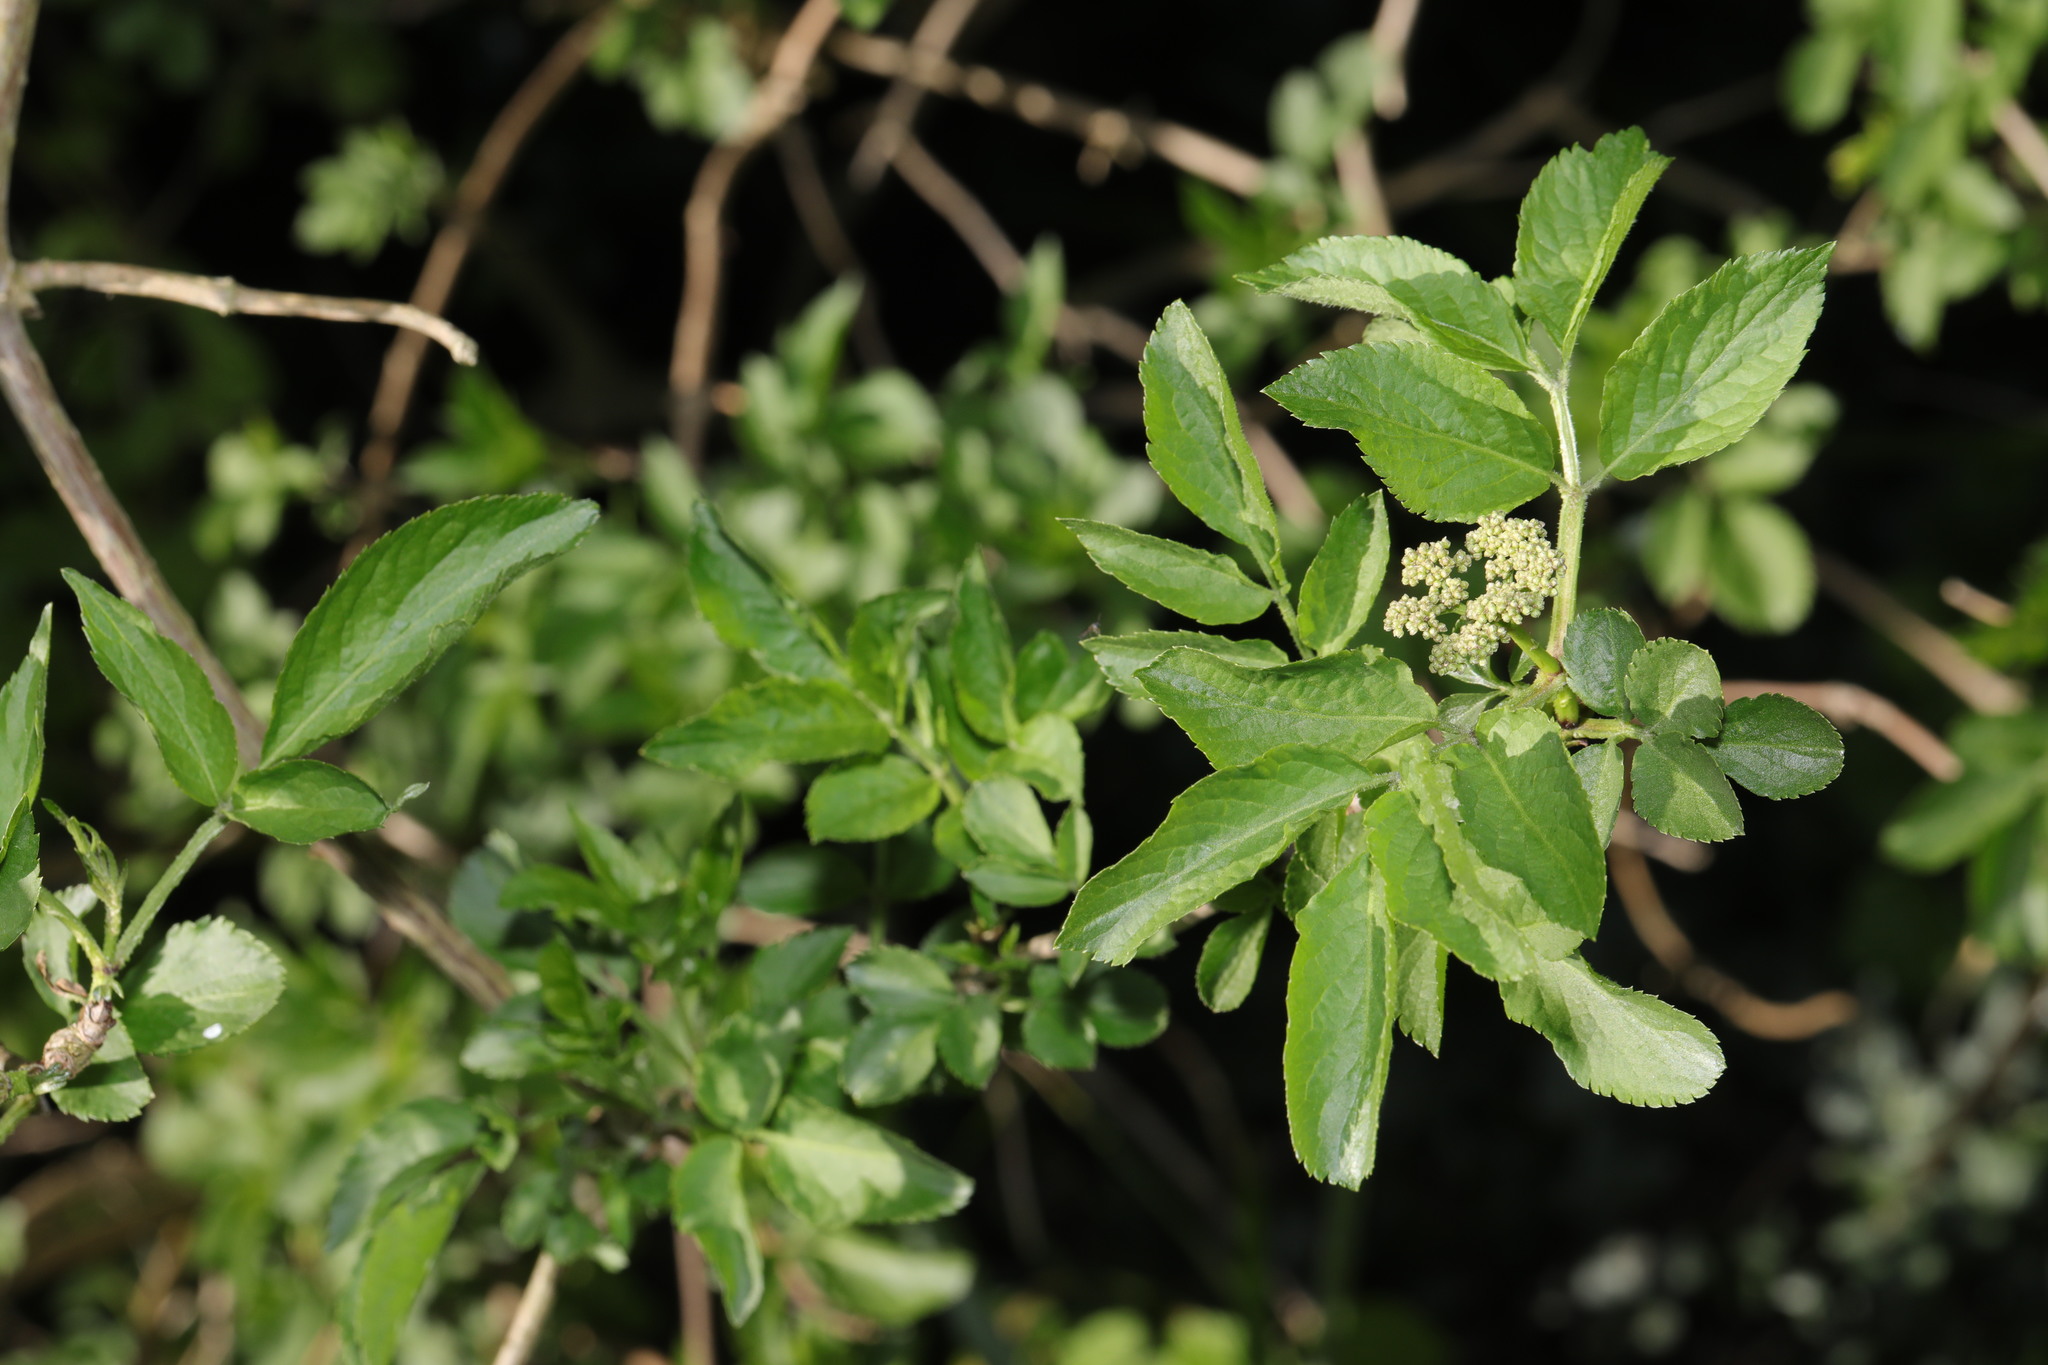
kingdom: Plantae
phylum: Tracheophyta
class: Magnoliopsida
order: Dipsacales
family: Viburnaceae
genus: Sambucus
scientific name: Sambucus nigra
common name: Elder
